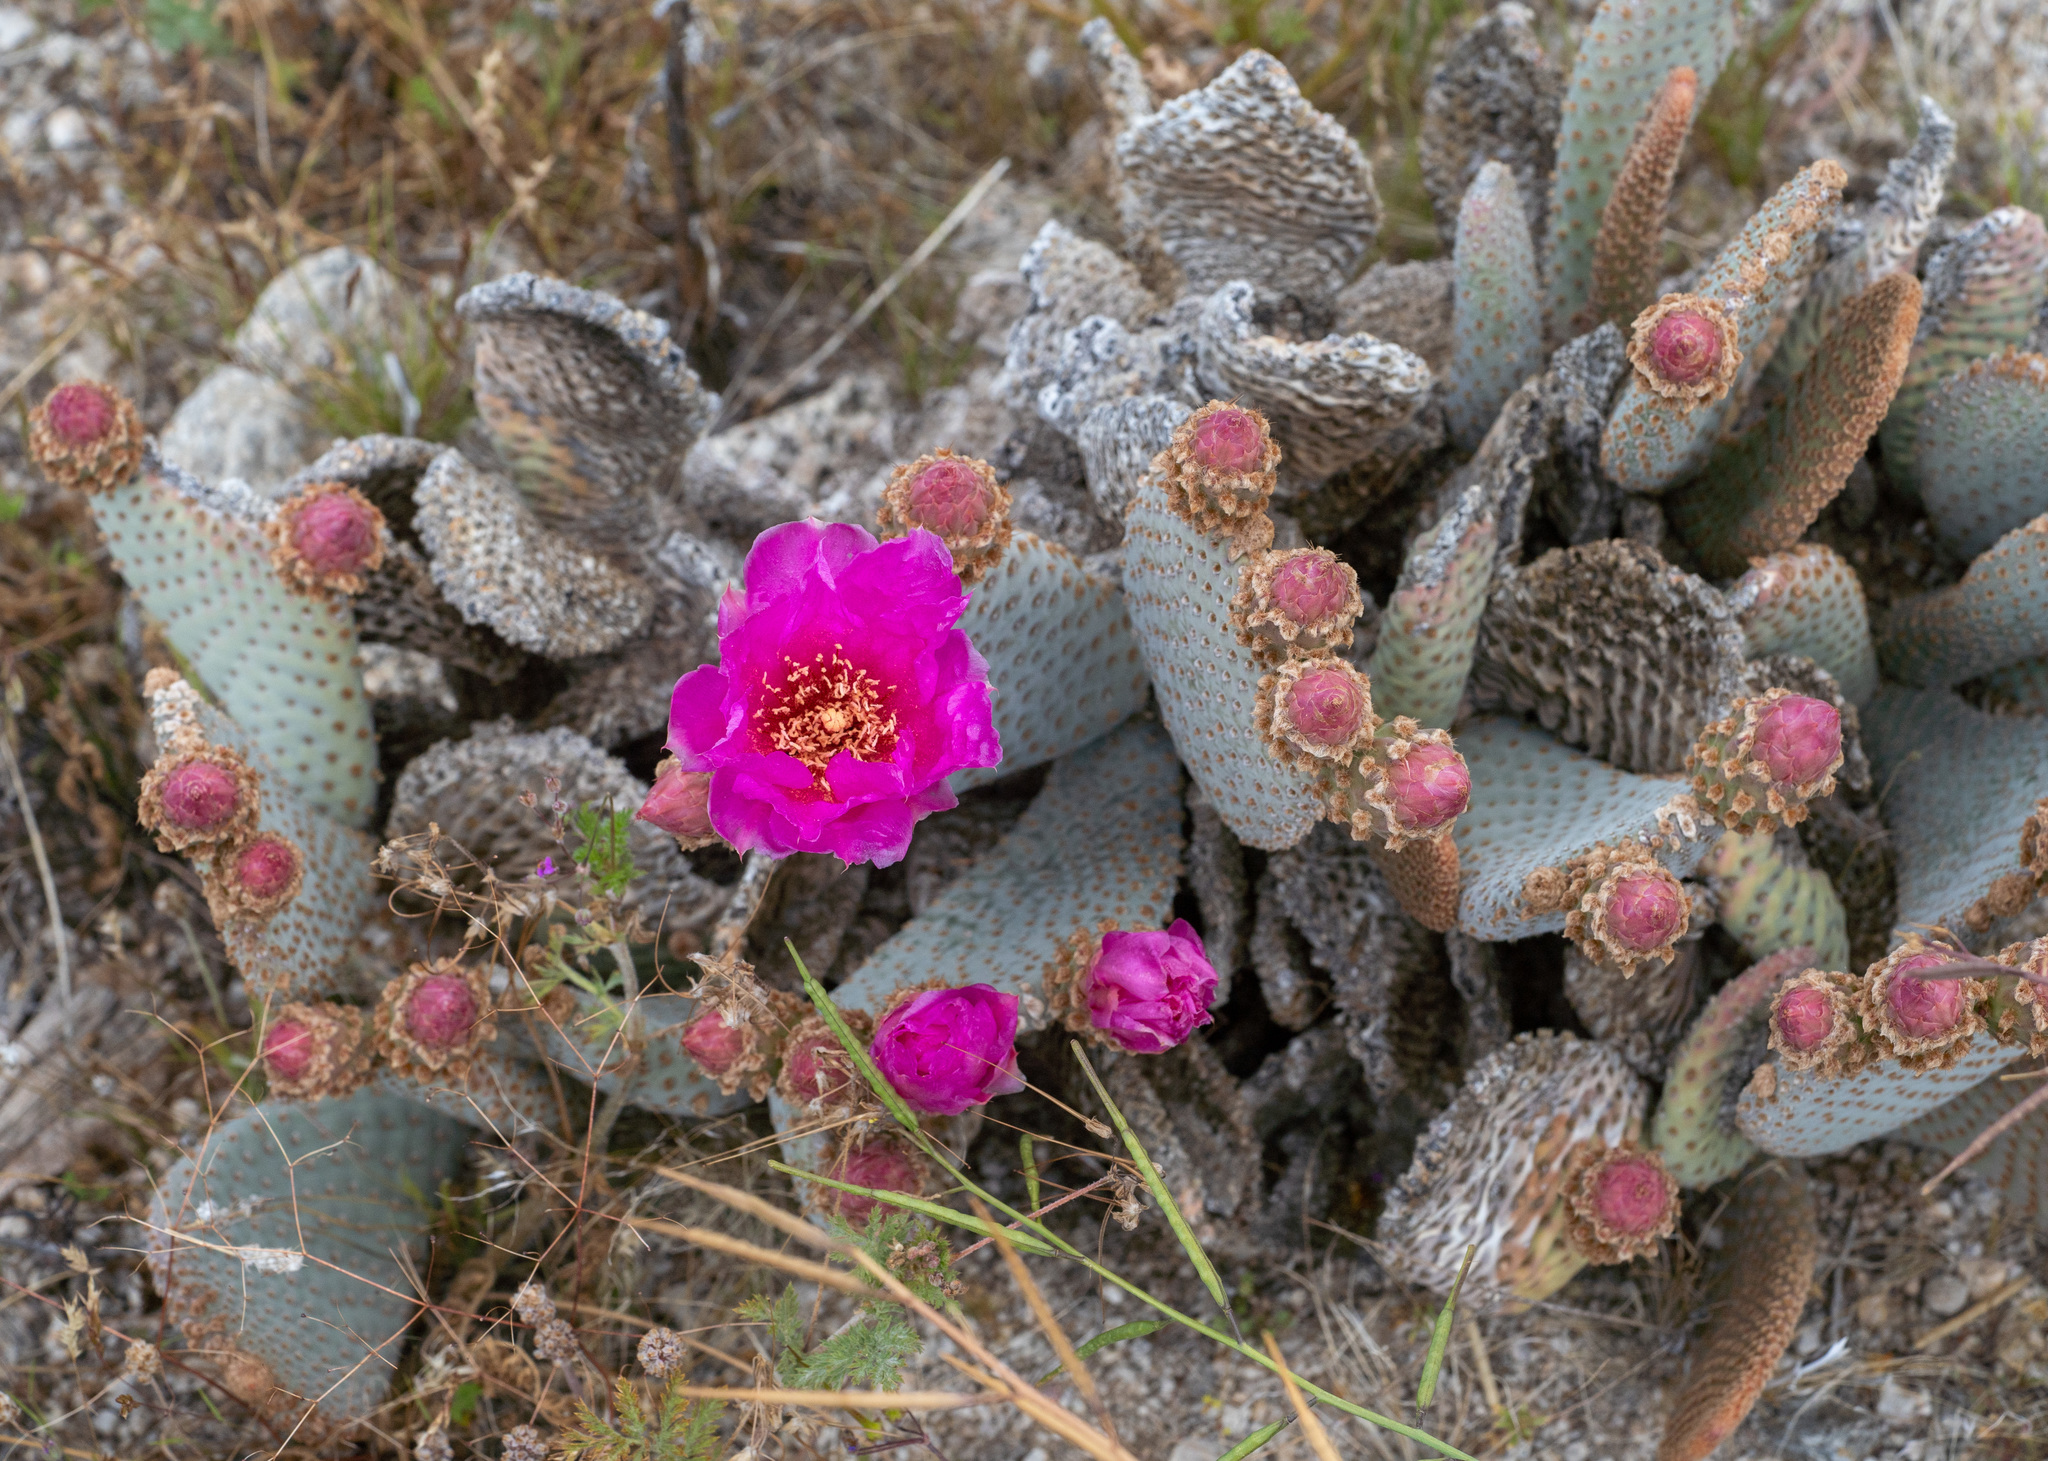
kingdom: Plantae
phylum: Tracheophyta
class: Magnoliopsida
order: Caryophyllales
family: Cactaceae
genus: Opuntia
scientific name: Opuntia basilaris
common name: Beavertail prickly-pear
